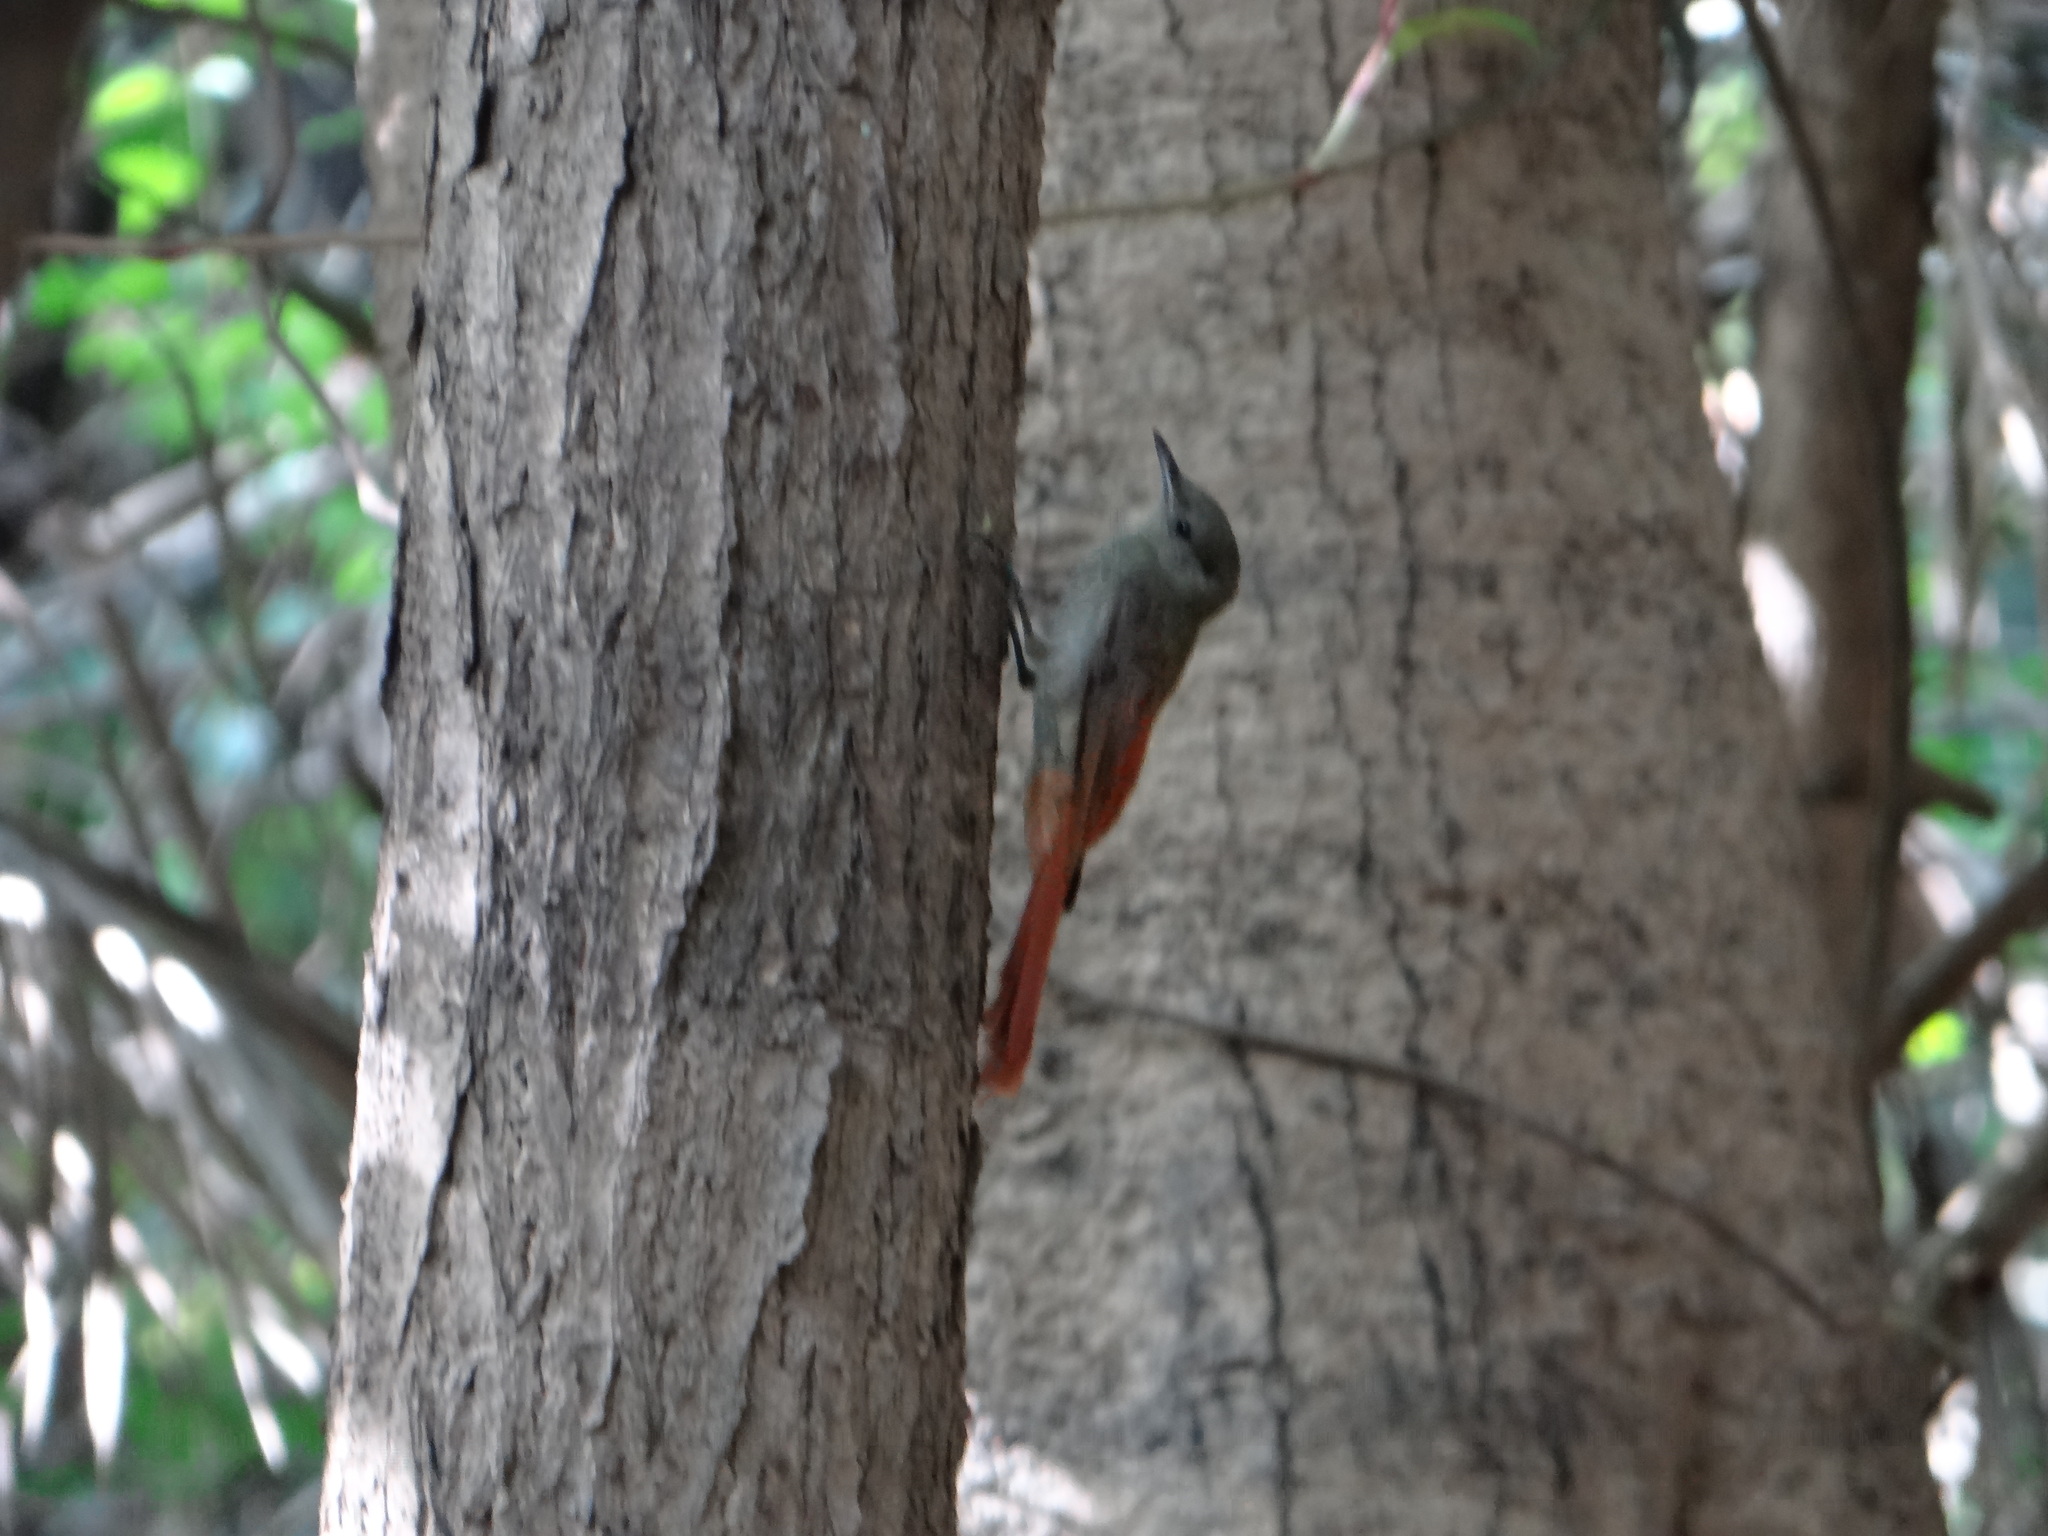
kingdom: Animalia
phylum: Chordata
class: Aves
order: Passeriformes
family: Furnariidae
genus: Sittasomus
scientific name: Sittasomus griseicapillus
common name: Olivaceous woodcreeper
